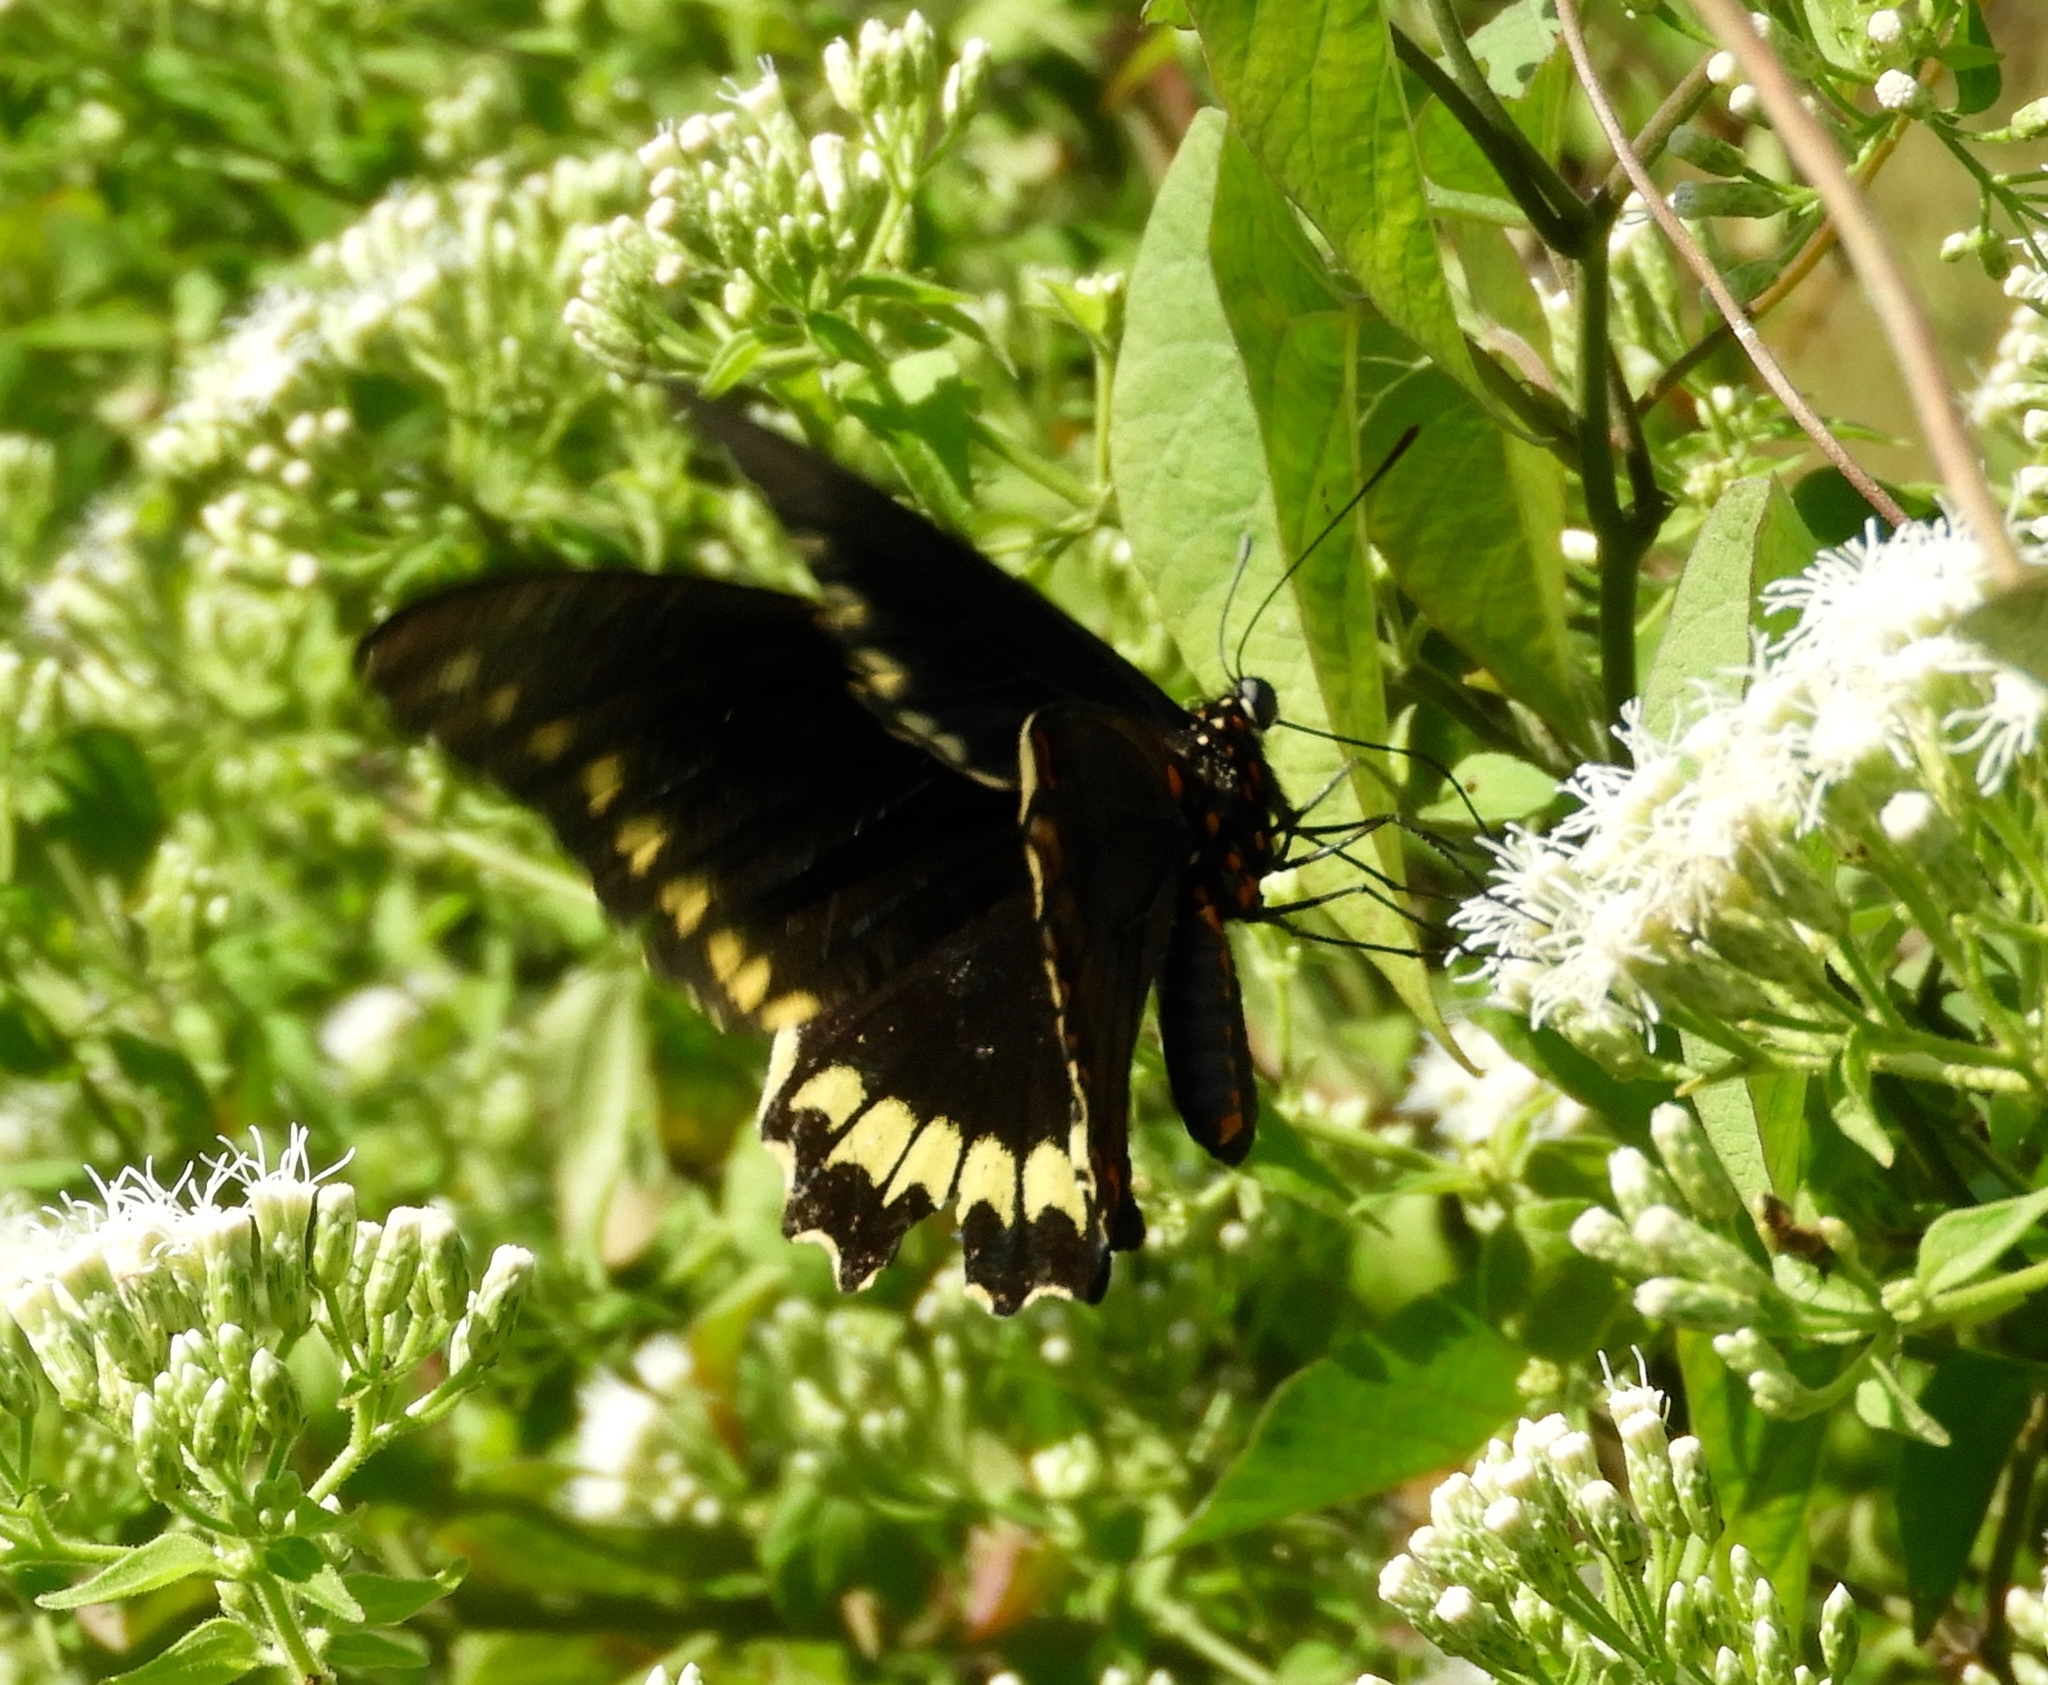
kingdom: Animalia
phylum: Arthropoda
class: Insecta
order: Lepidoptera
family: Papilionidae
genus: Battus
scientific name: Battus polydamas
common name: Polydamas swallowtail
